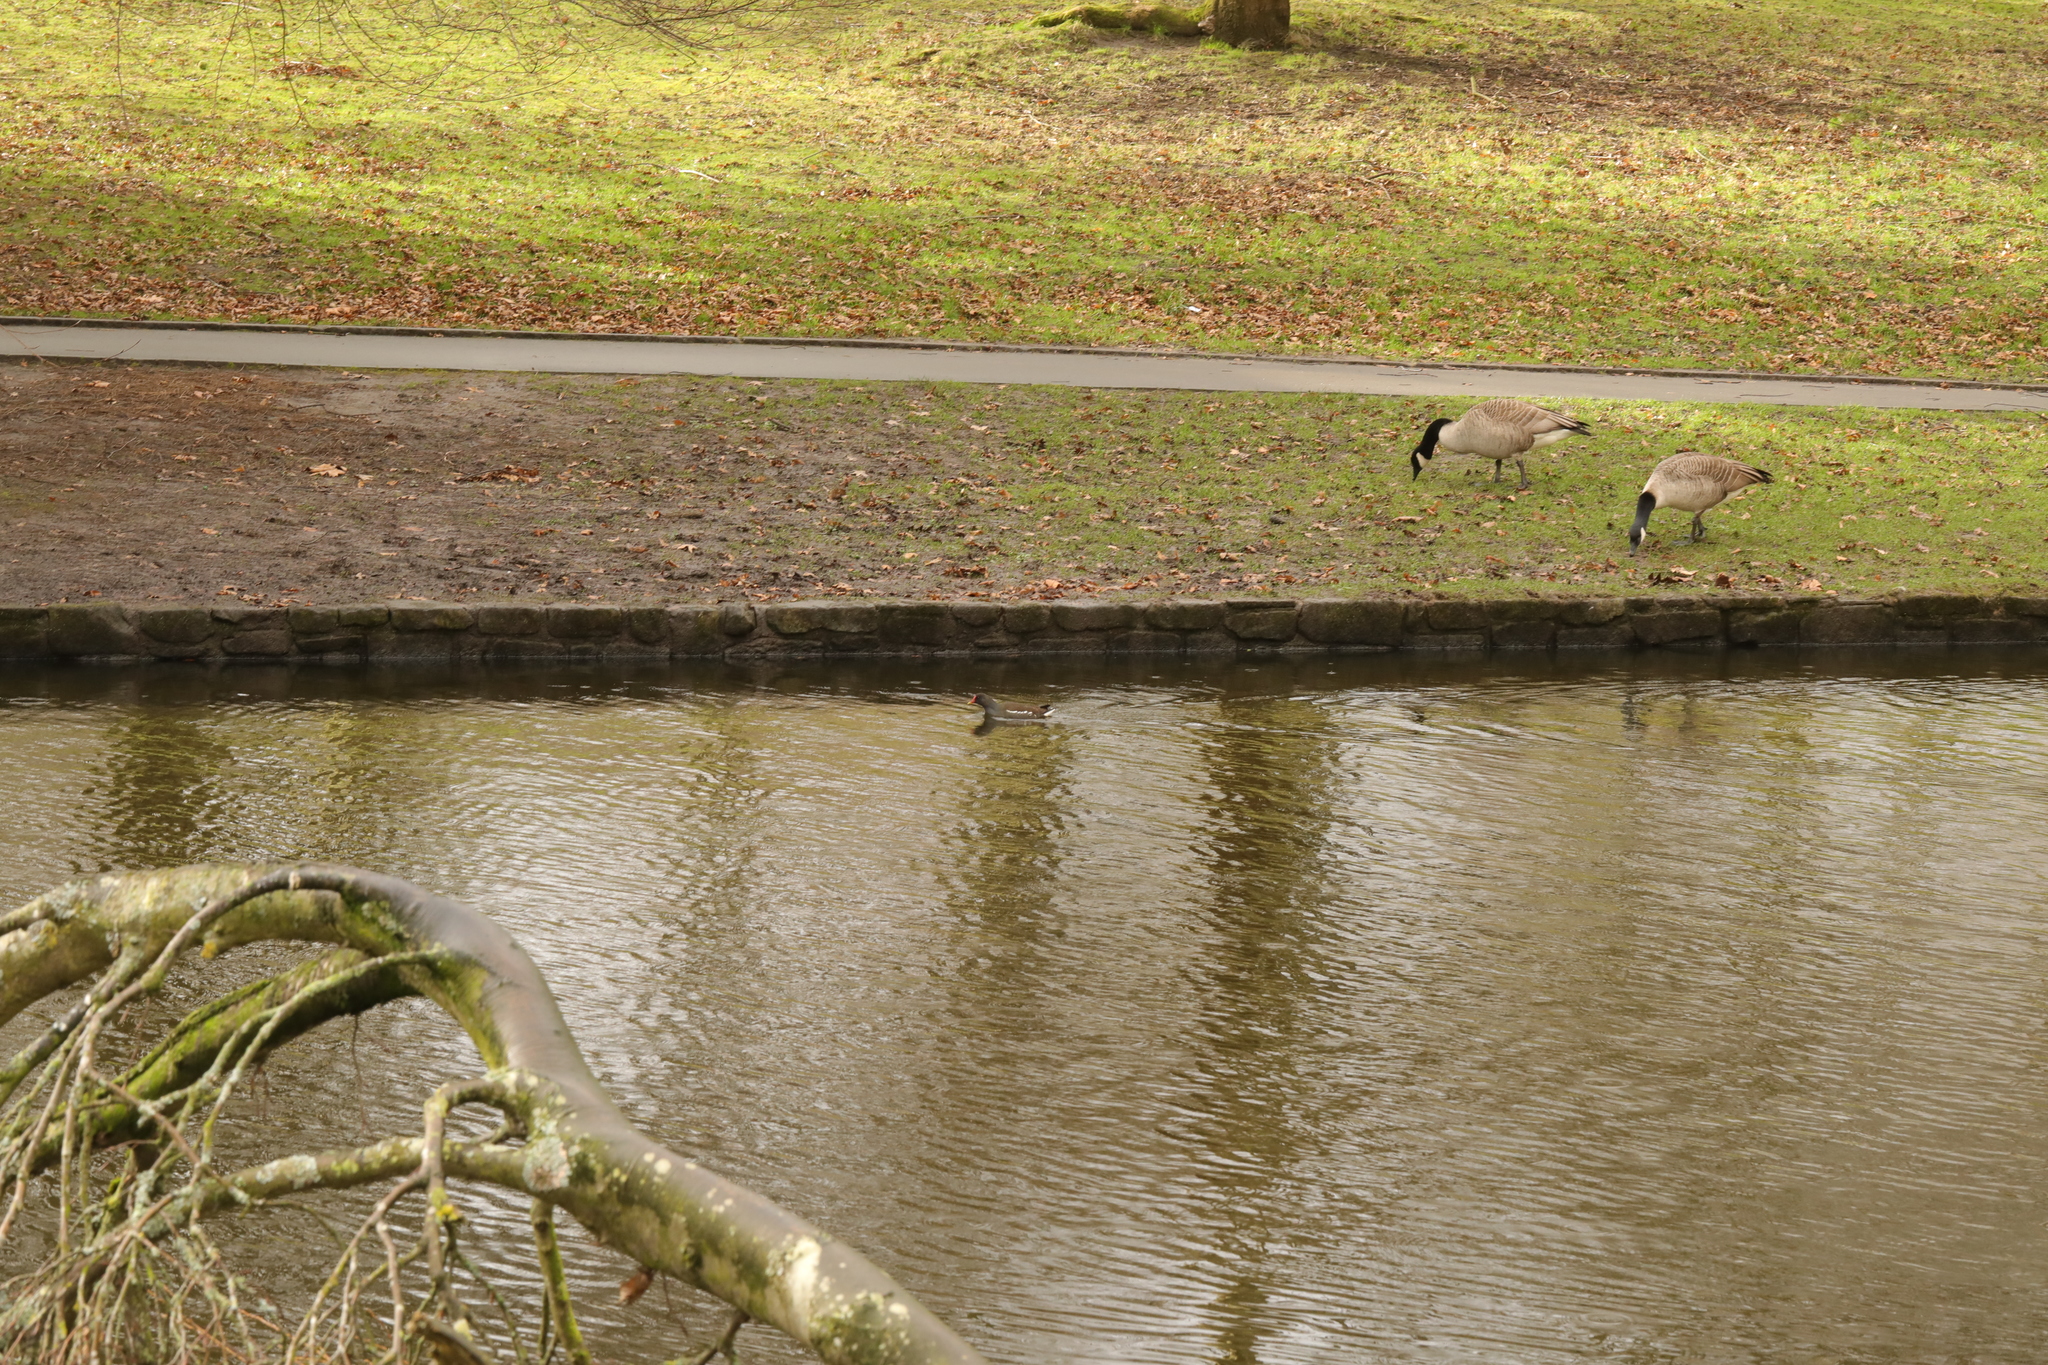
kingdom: Animalia
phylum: Chordata
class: Aves
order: Anseriformes
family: Anatidae
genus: Branta
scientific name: Branta canadensis
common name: Canada goose
